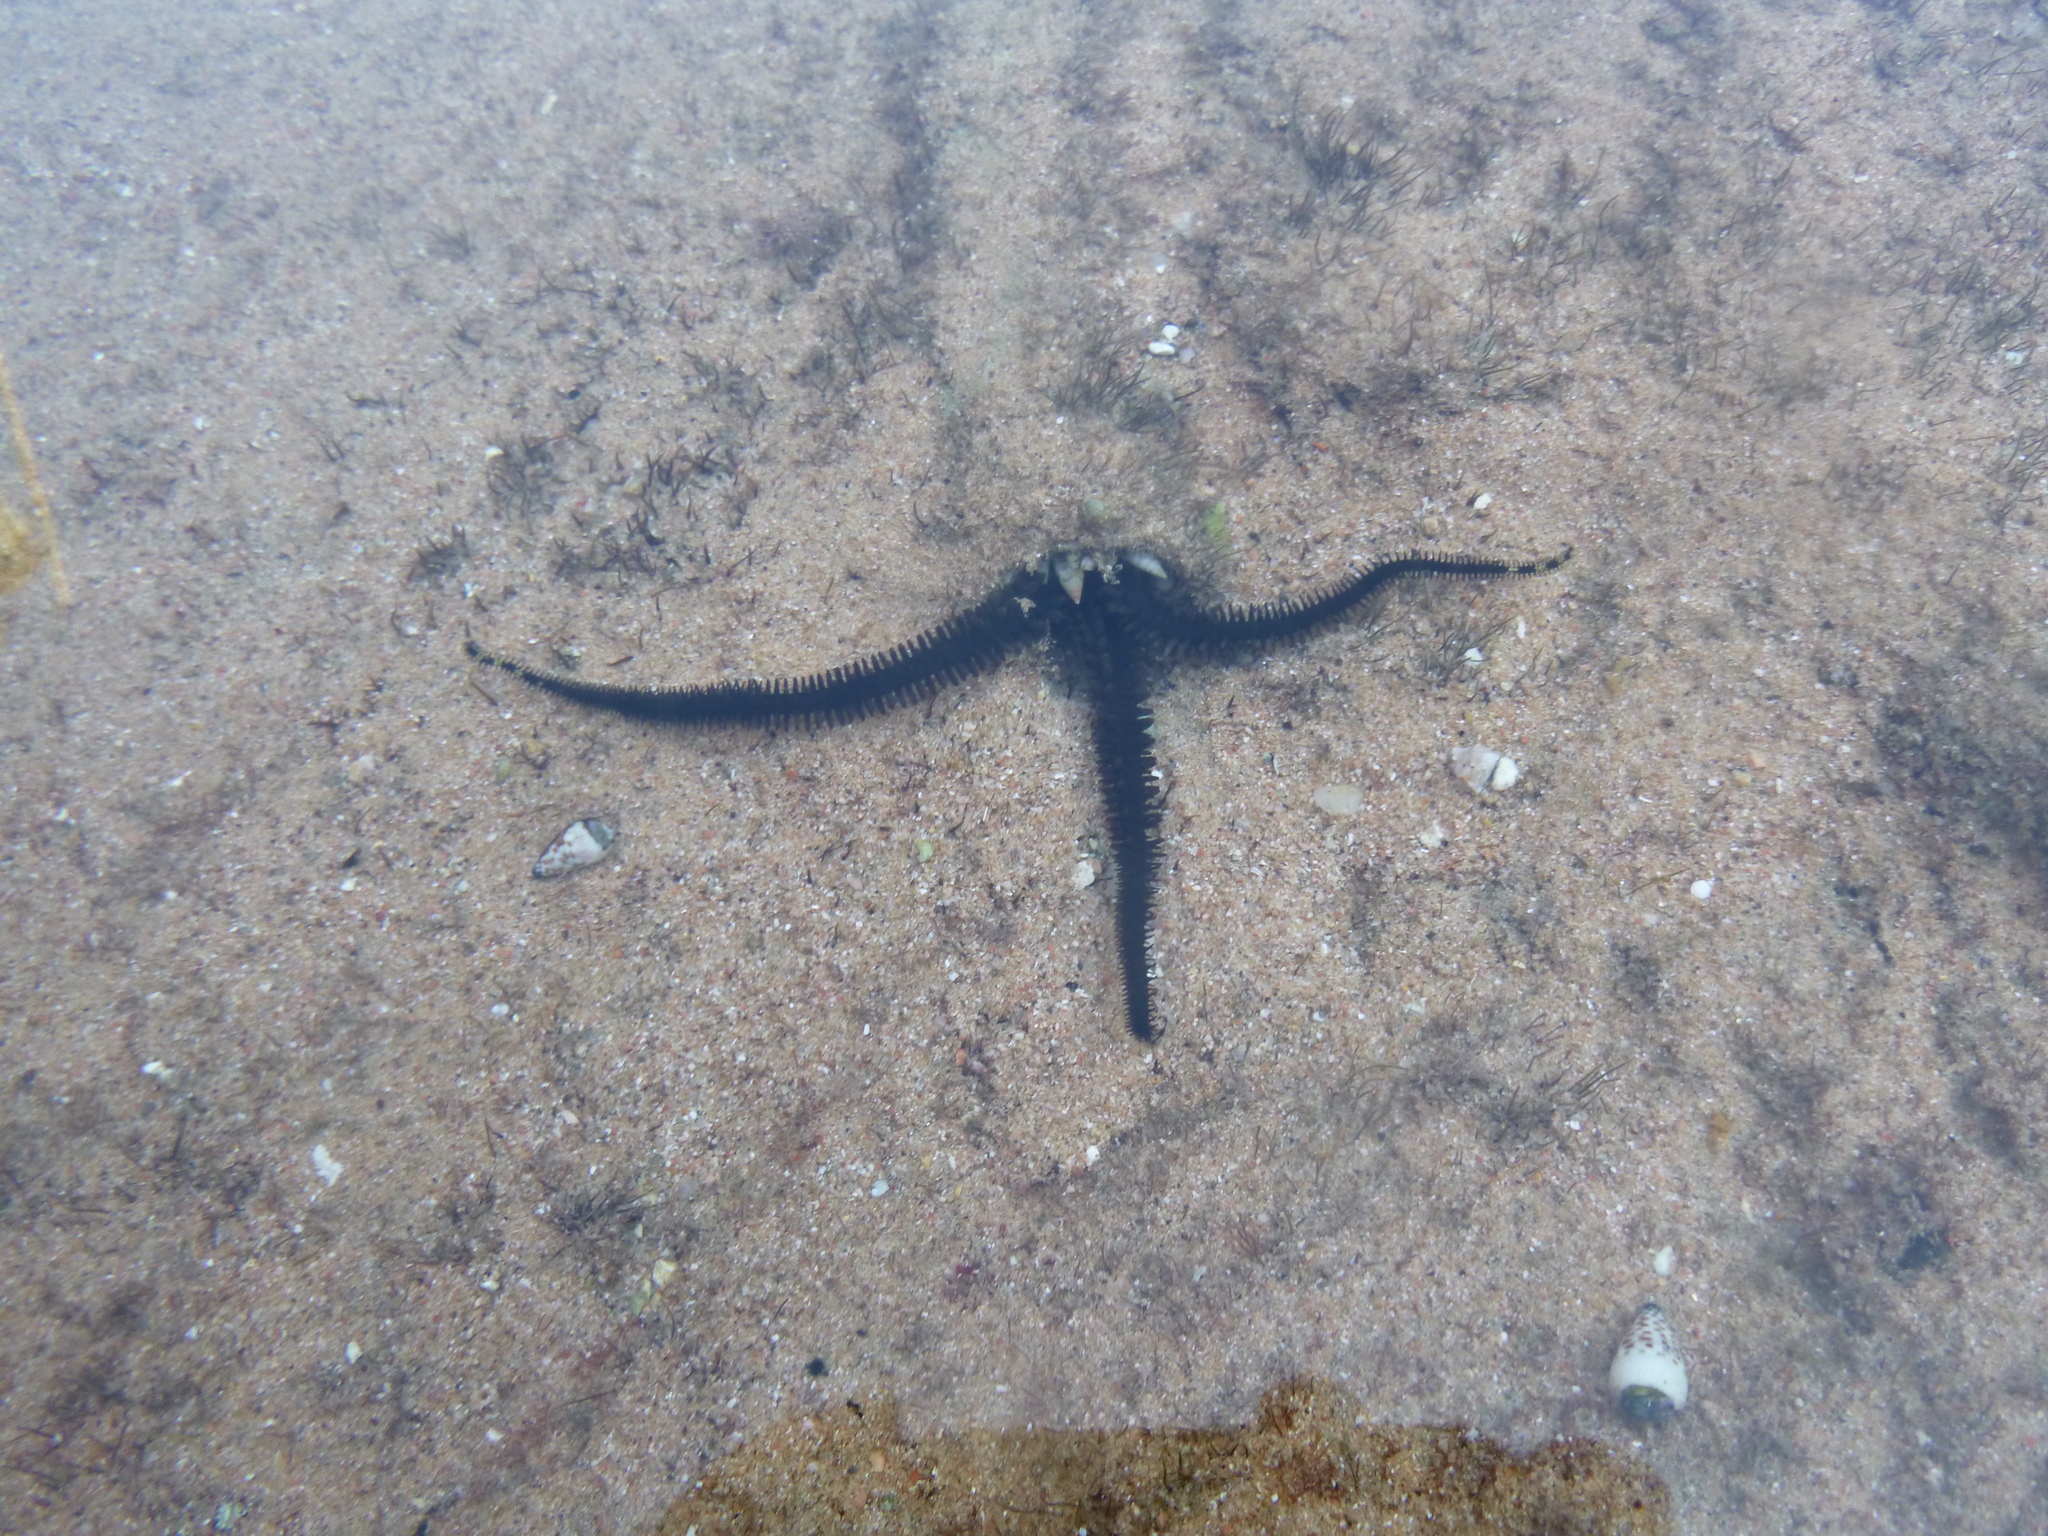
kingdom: Animalia
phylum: Echinodermata
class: Ophiuroidea
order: Ophiacanthida
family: Ophiocomidae
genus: Ophiocoma
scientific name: Ophiocoma scolopendrina
